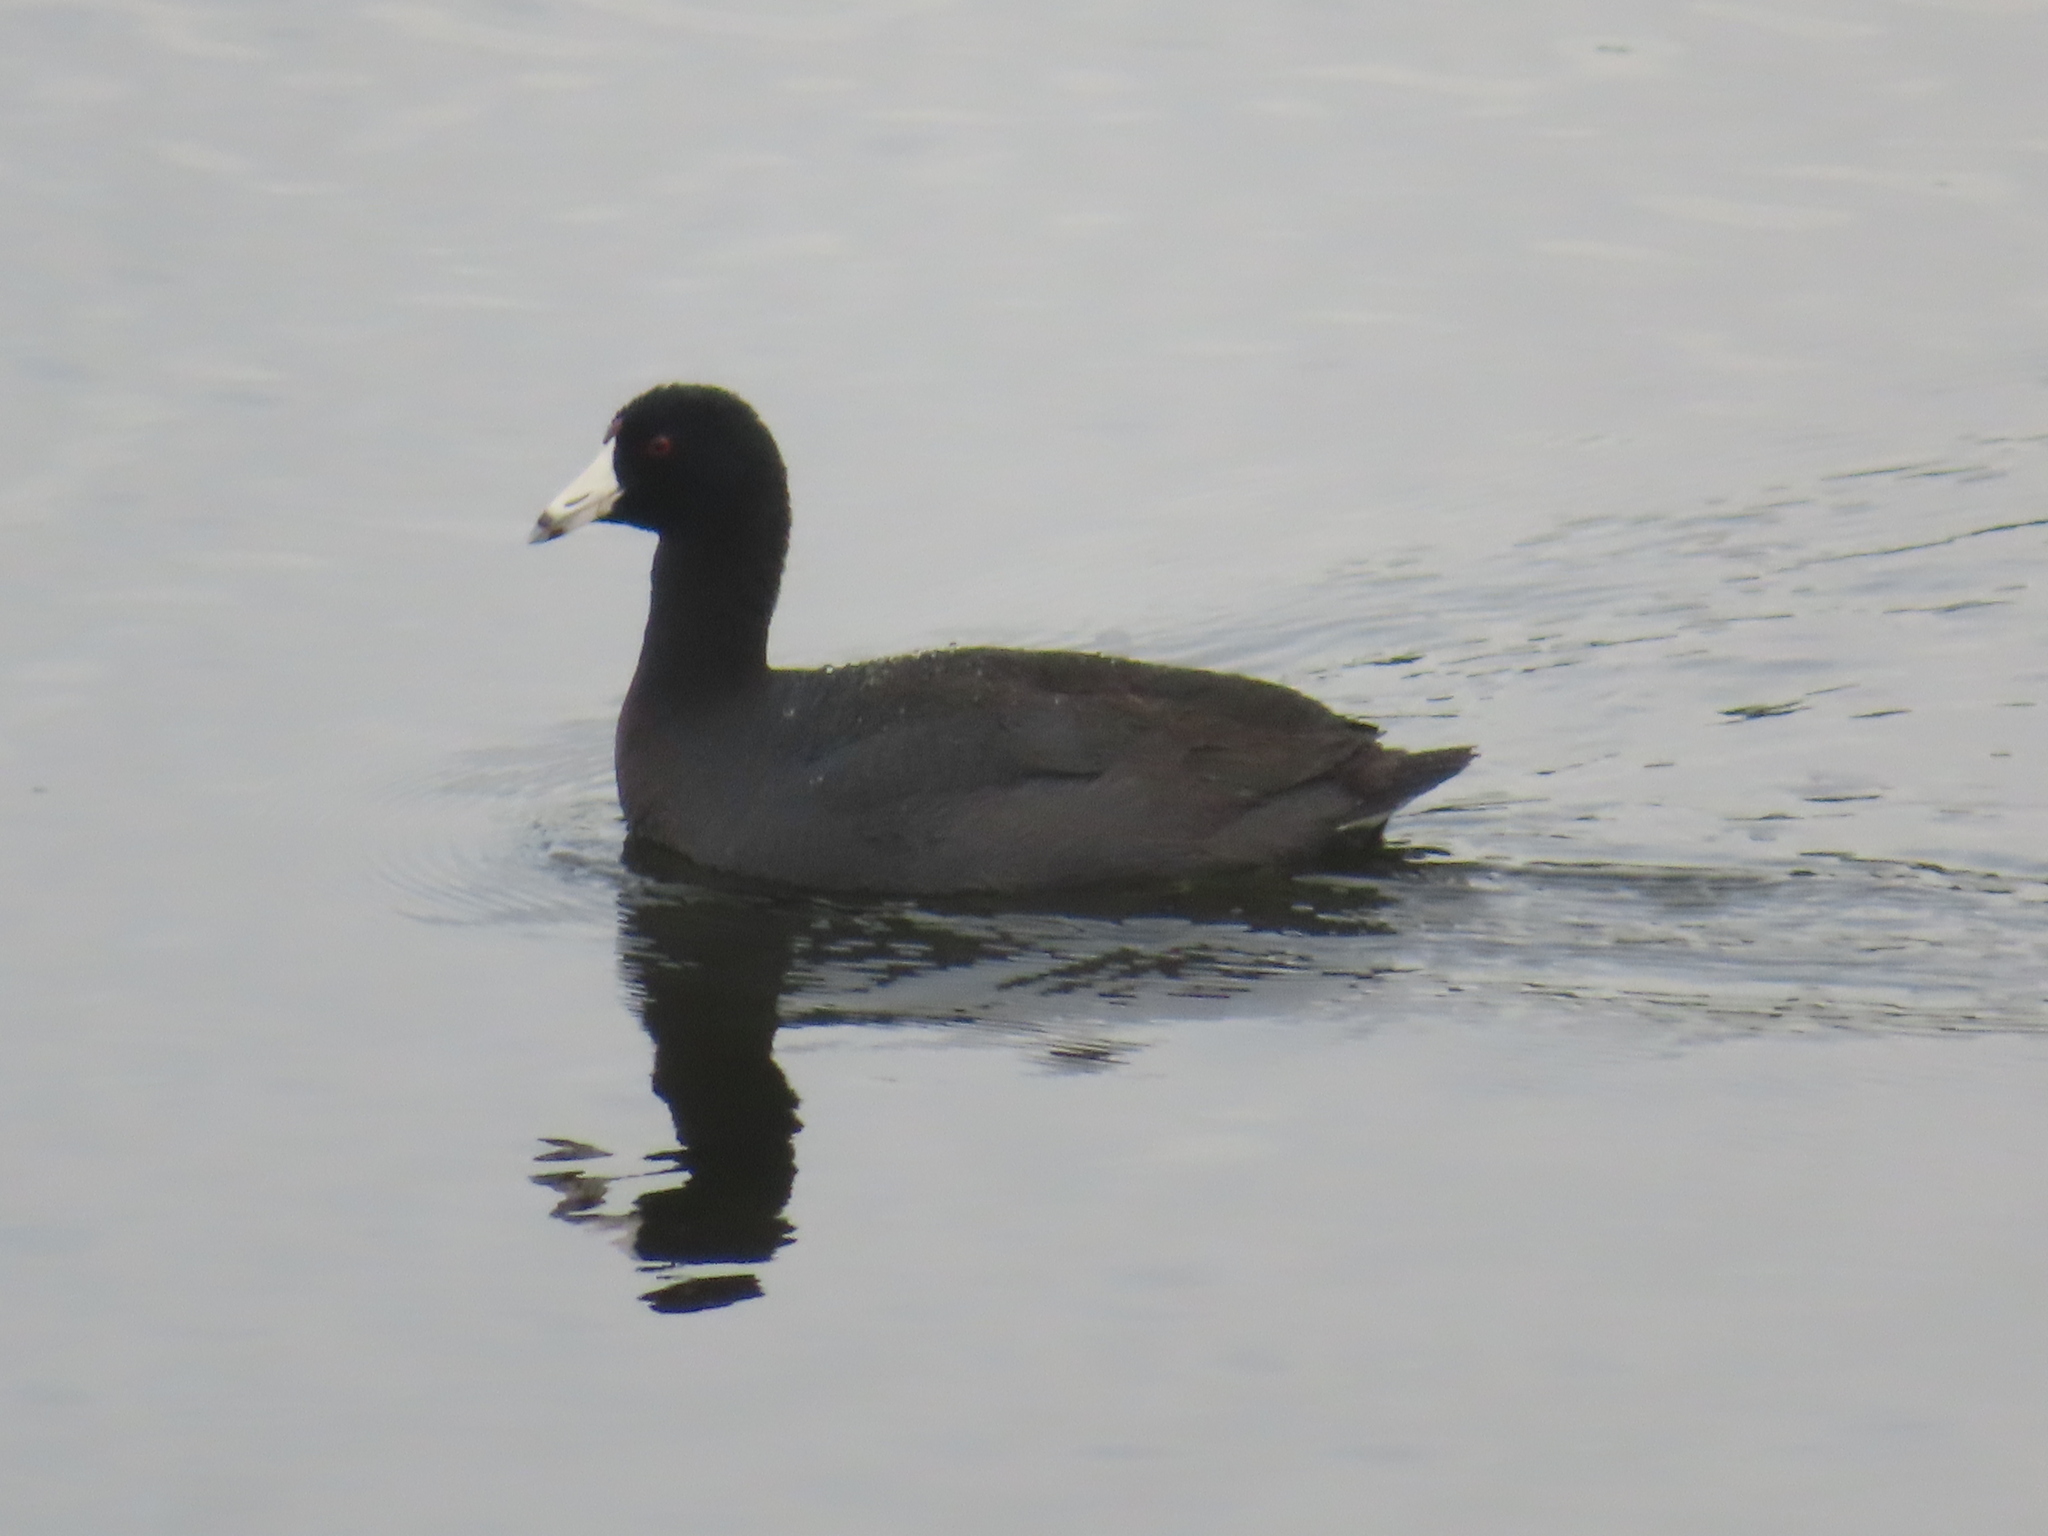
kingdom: Animalia
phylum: Chordata
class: Aves
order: Gruiformes
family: Rallidae
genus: Fulica
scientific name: Fulica americana
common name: American coot
